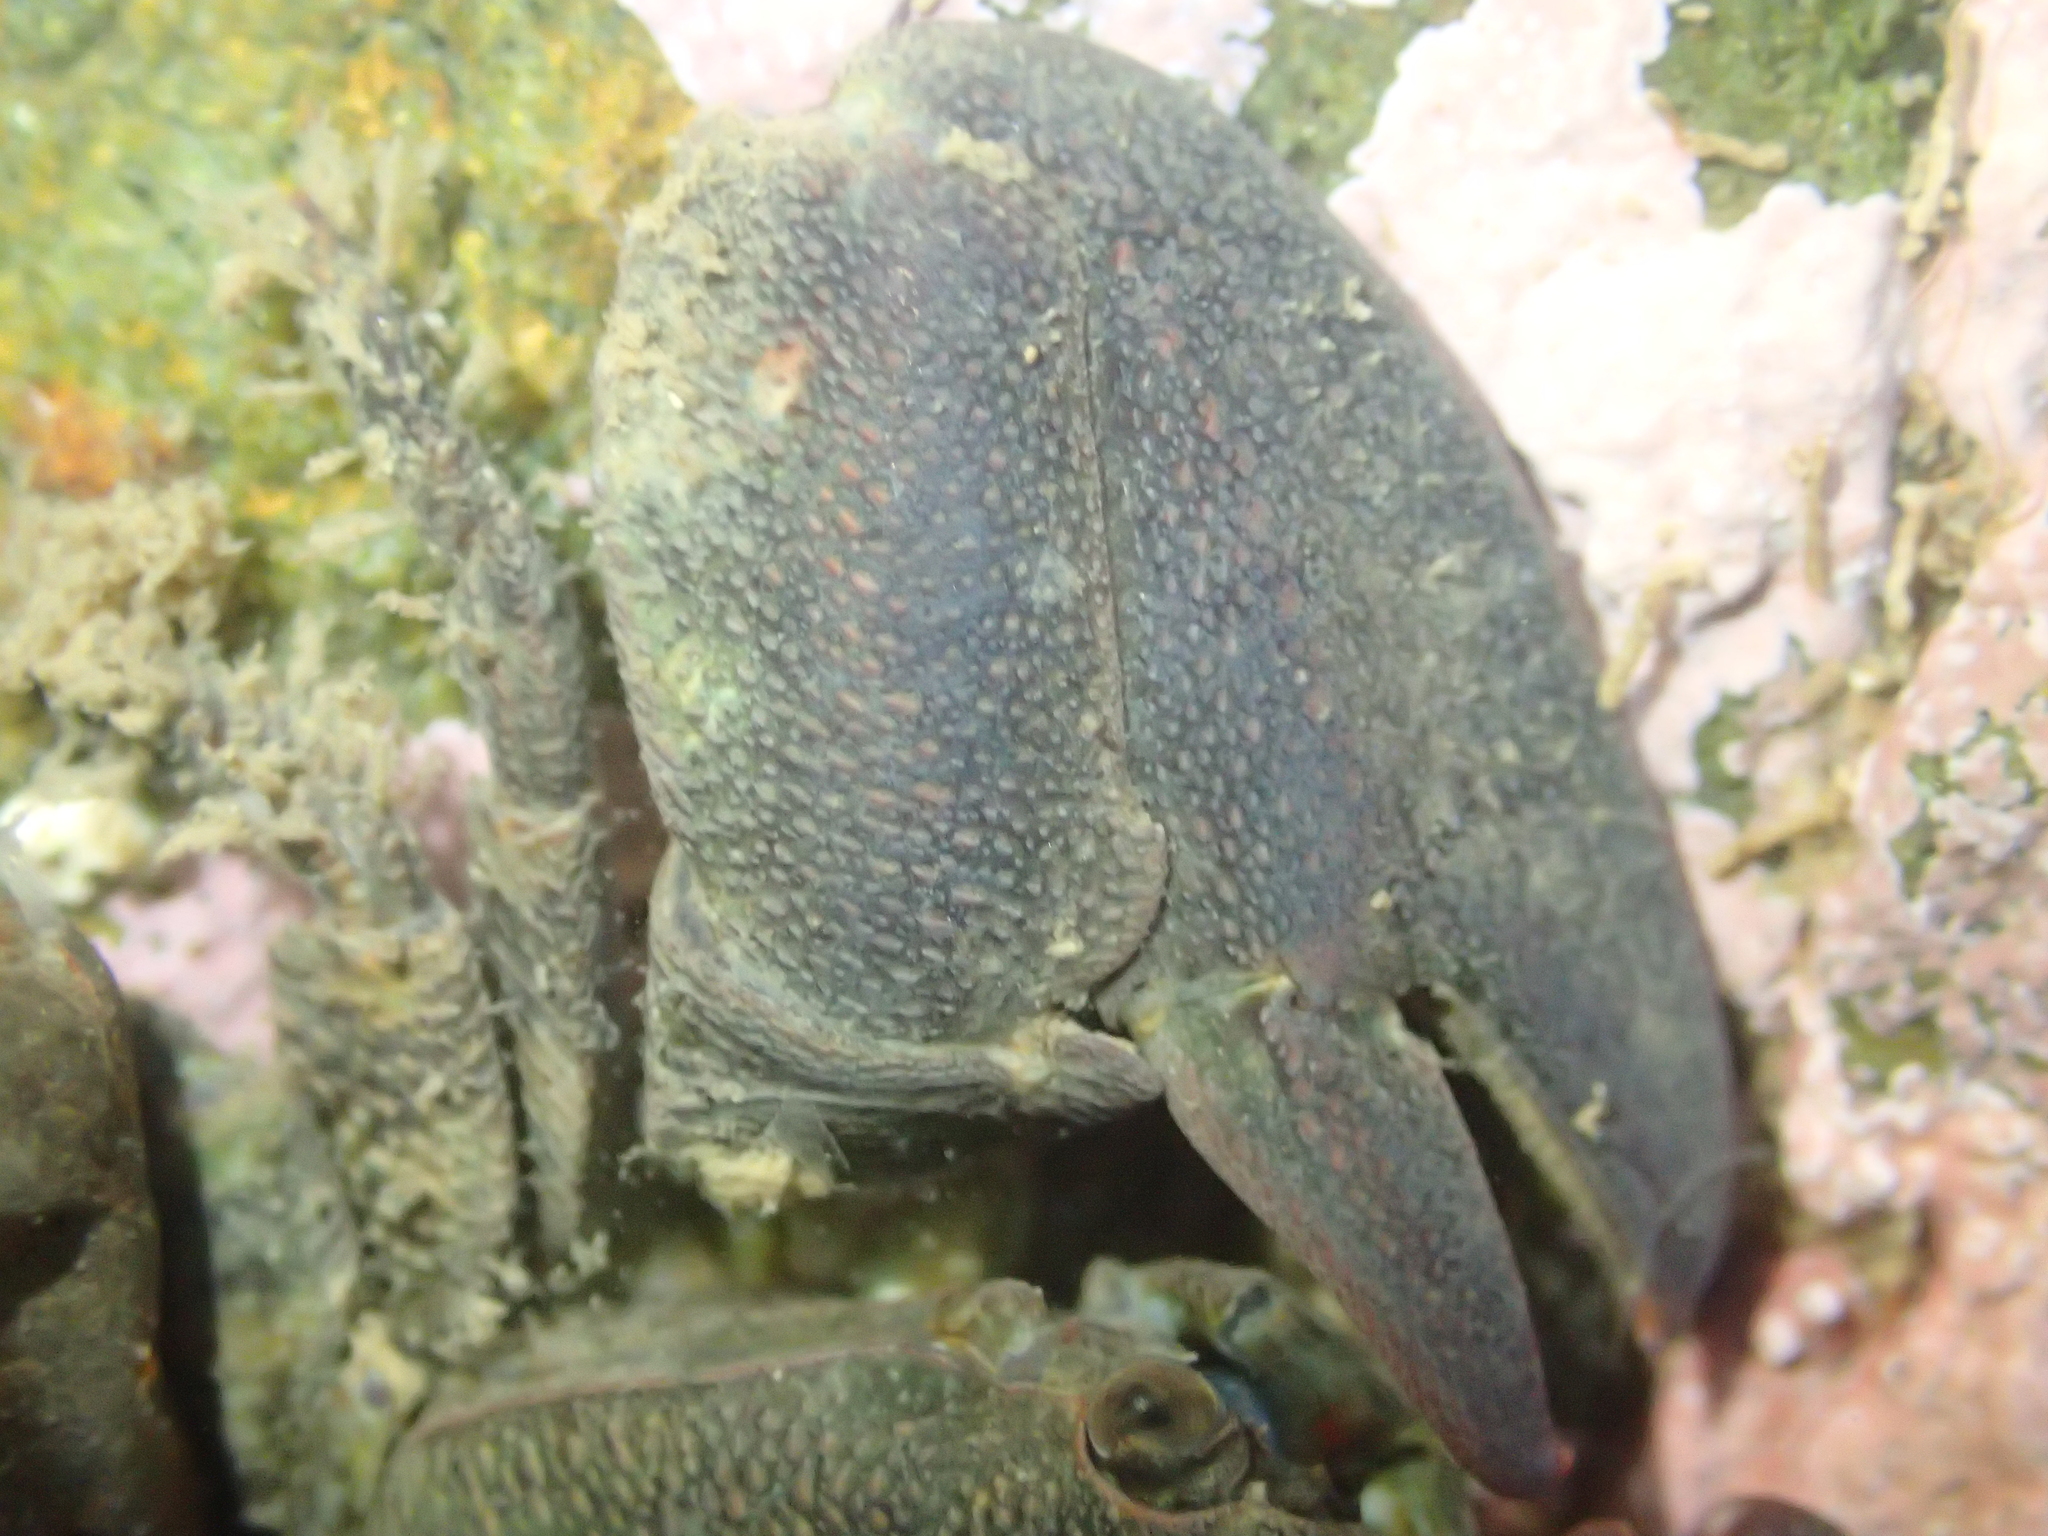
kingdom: Animalia
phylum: Arthropoda
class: Malacostraca
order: Decapoda
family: Porcellanidae
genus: Petrolisthes
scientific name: Petrolisthes elongatus
